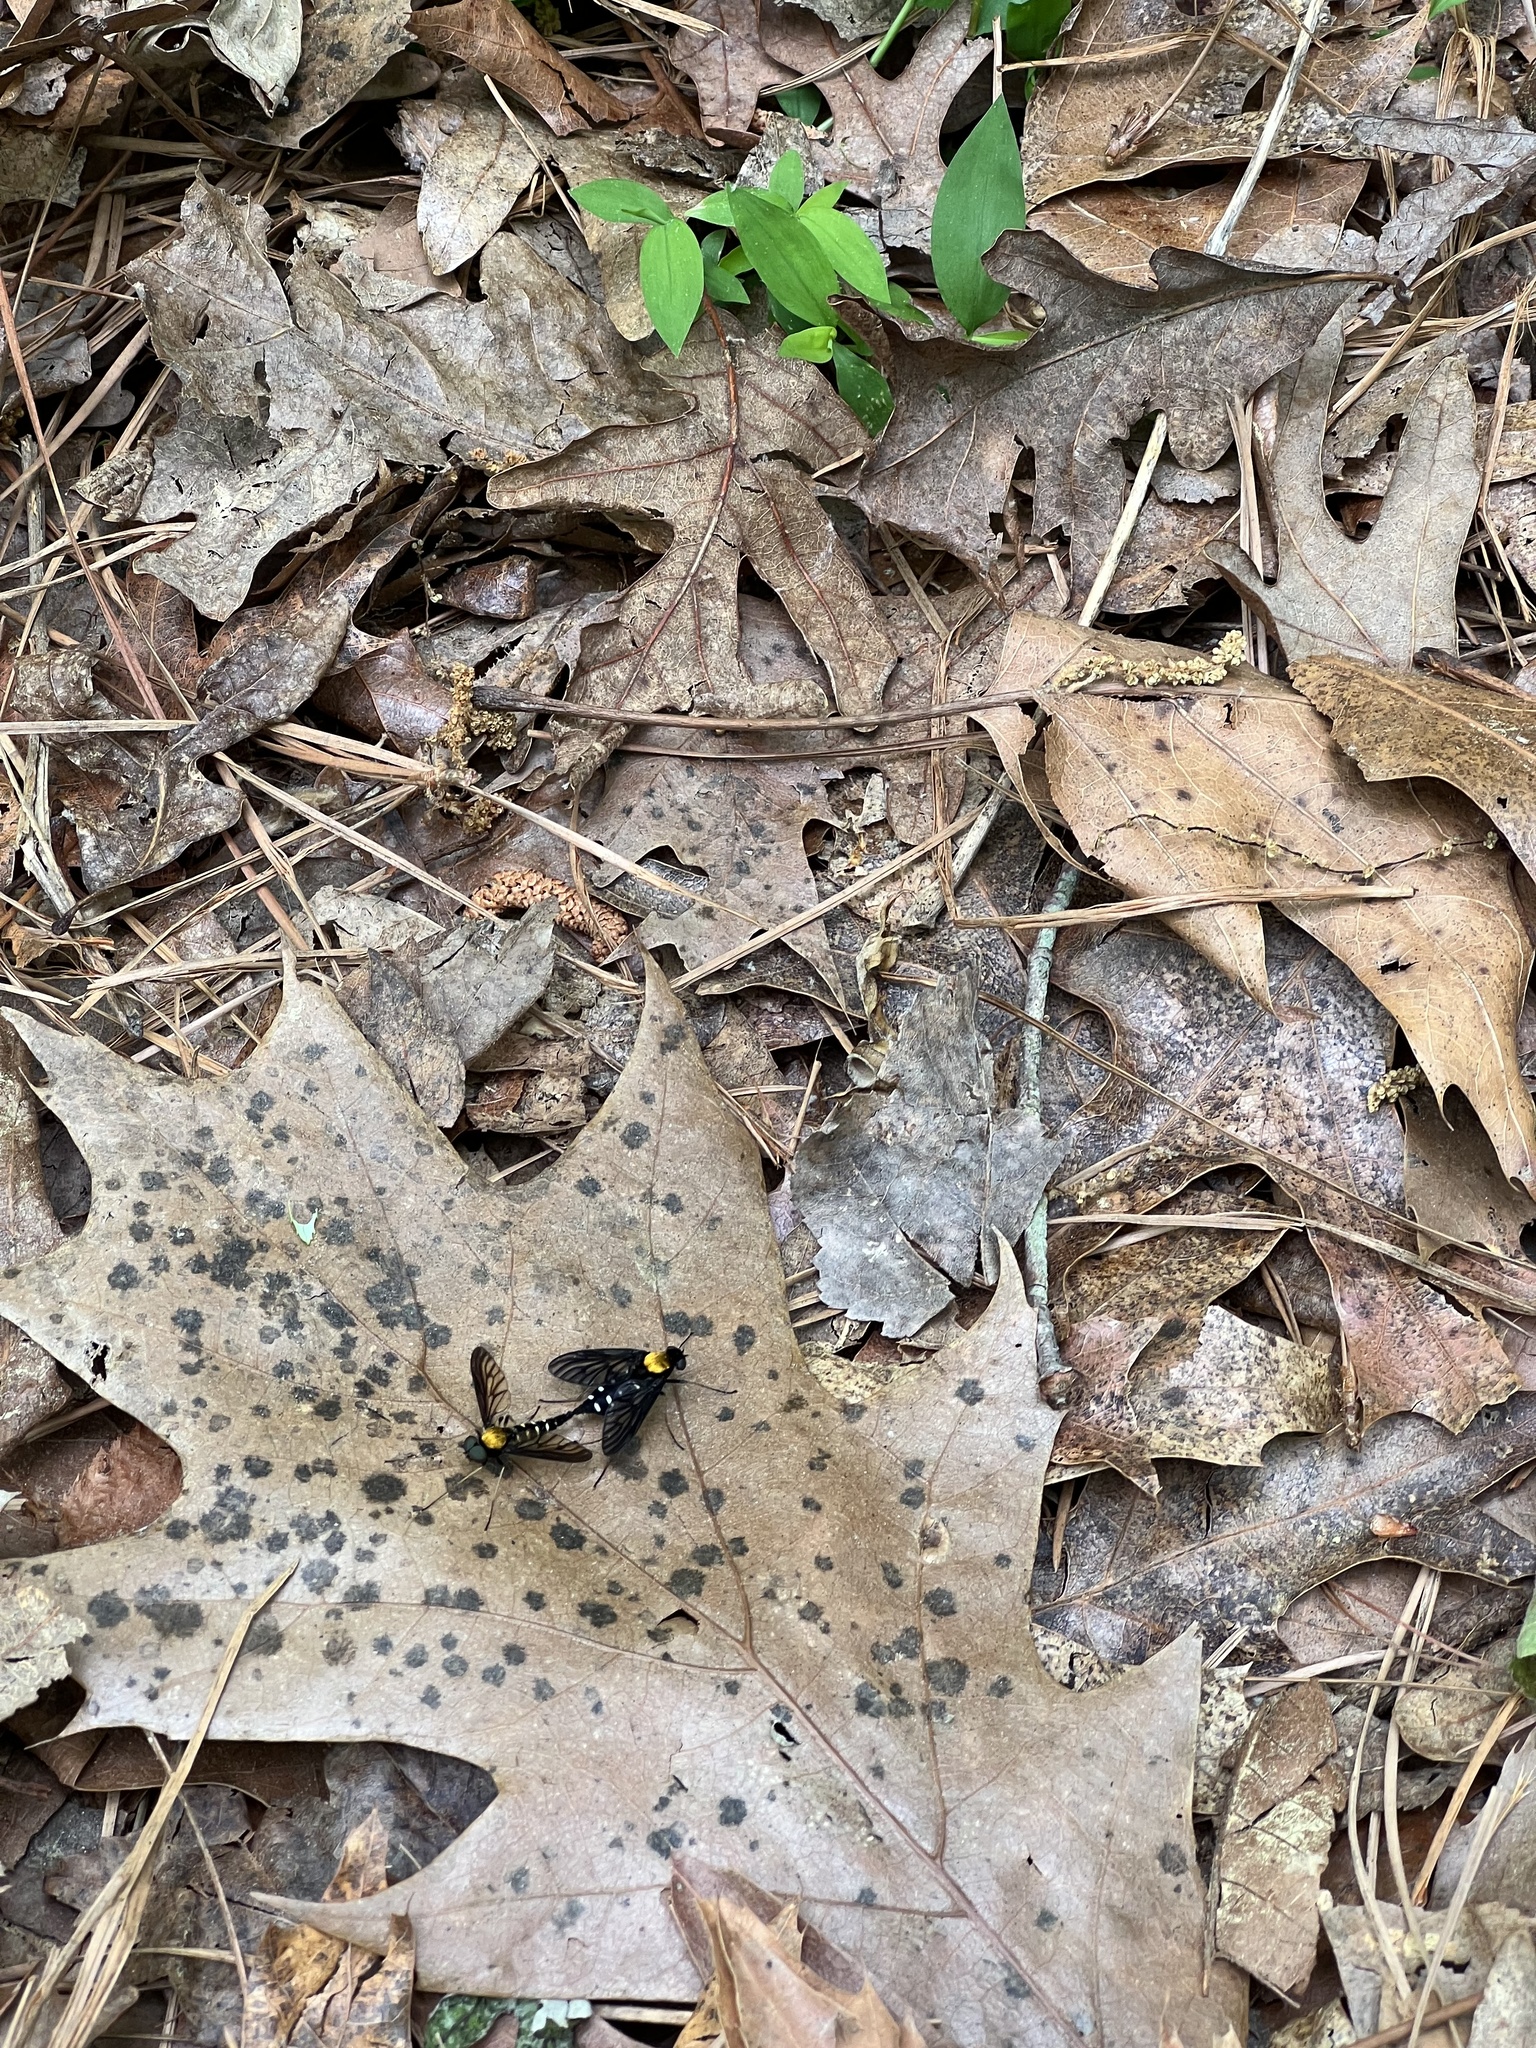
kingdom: Animalia
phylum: Arthropoda
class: Insecta
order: Diptera
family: Rhagionidae
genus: Chrysopilus
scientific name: Chrysopilus thoracicus
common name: Golden-backed snipe fly
